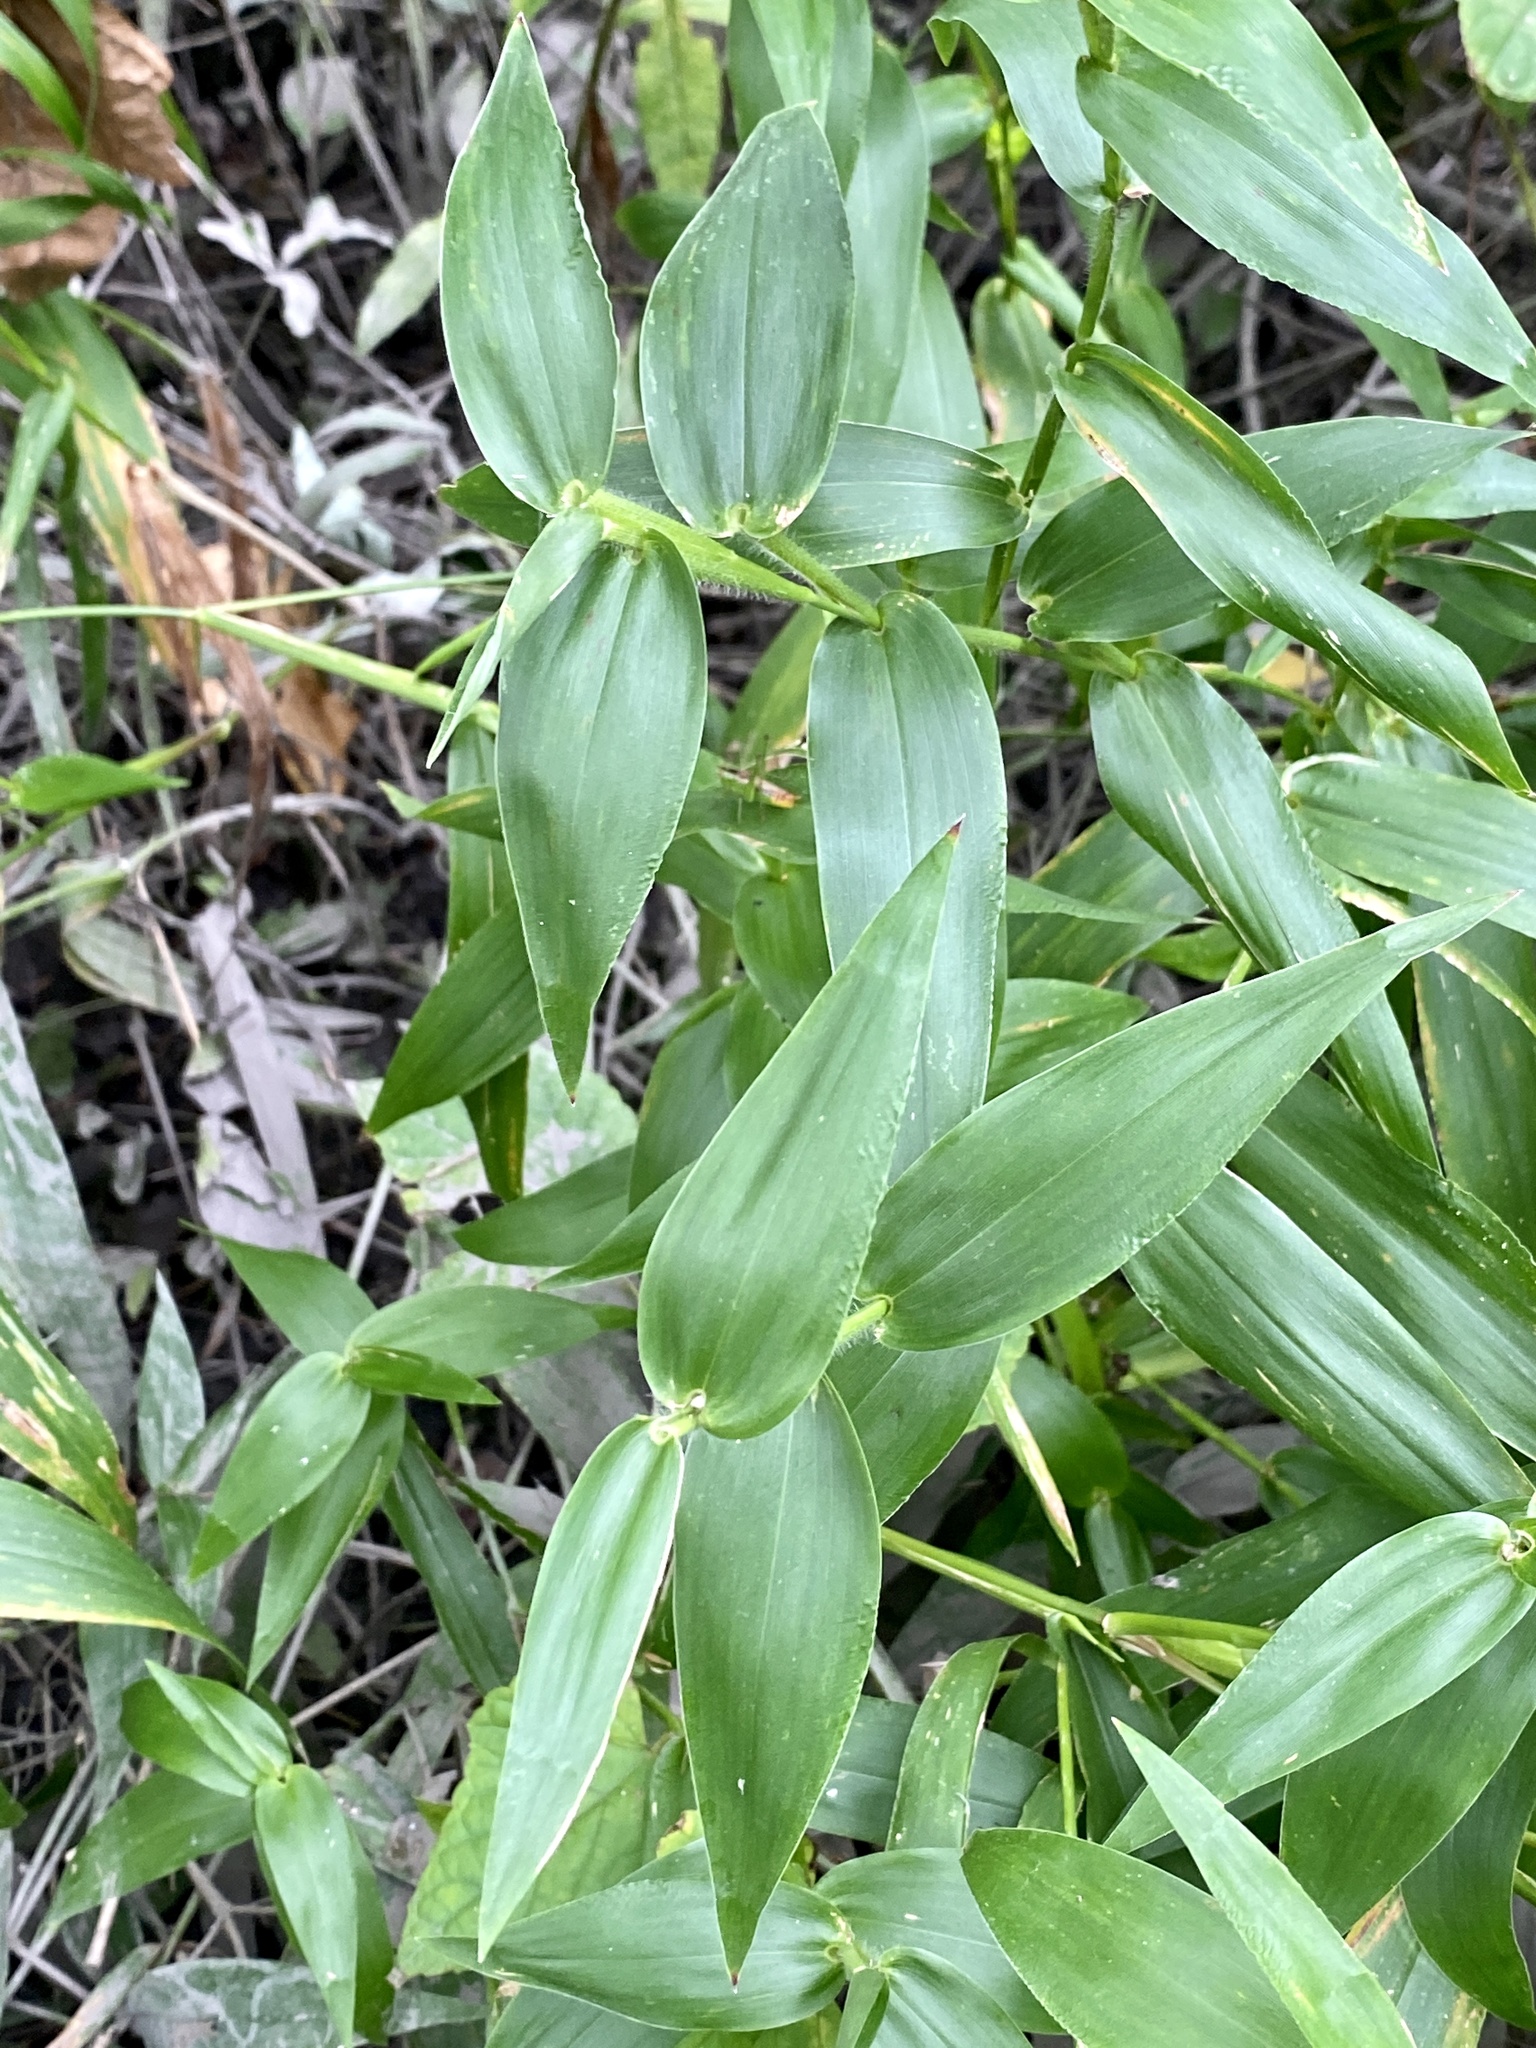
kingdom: Plantae
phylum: Tracheophyta
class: Liliopsida
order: Poales
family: Poaceae
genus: Dichanthelium
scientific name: Dichanthelium clandestinum
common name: Deer-tongue grass
